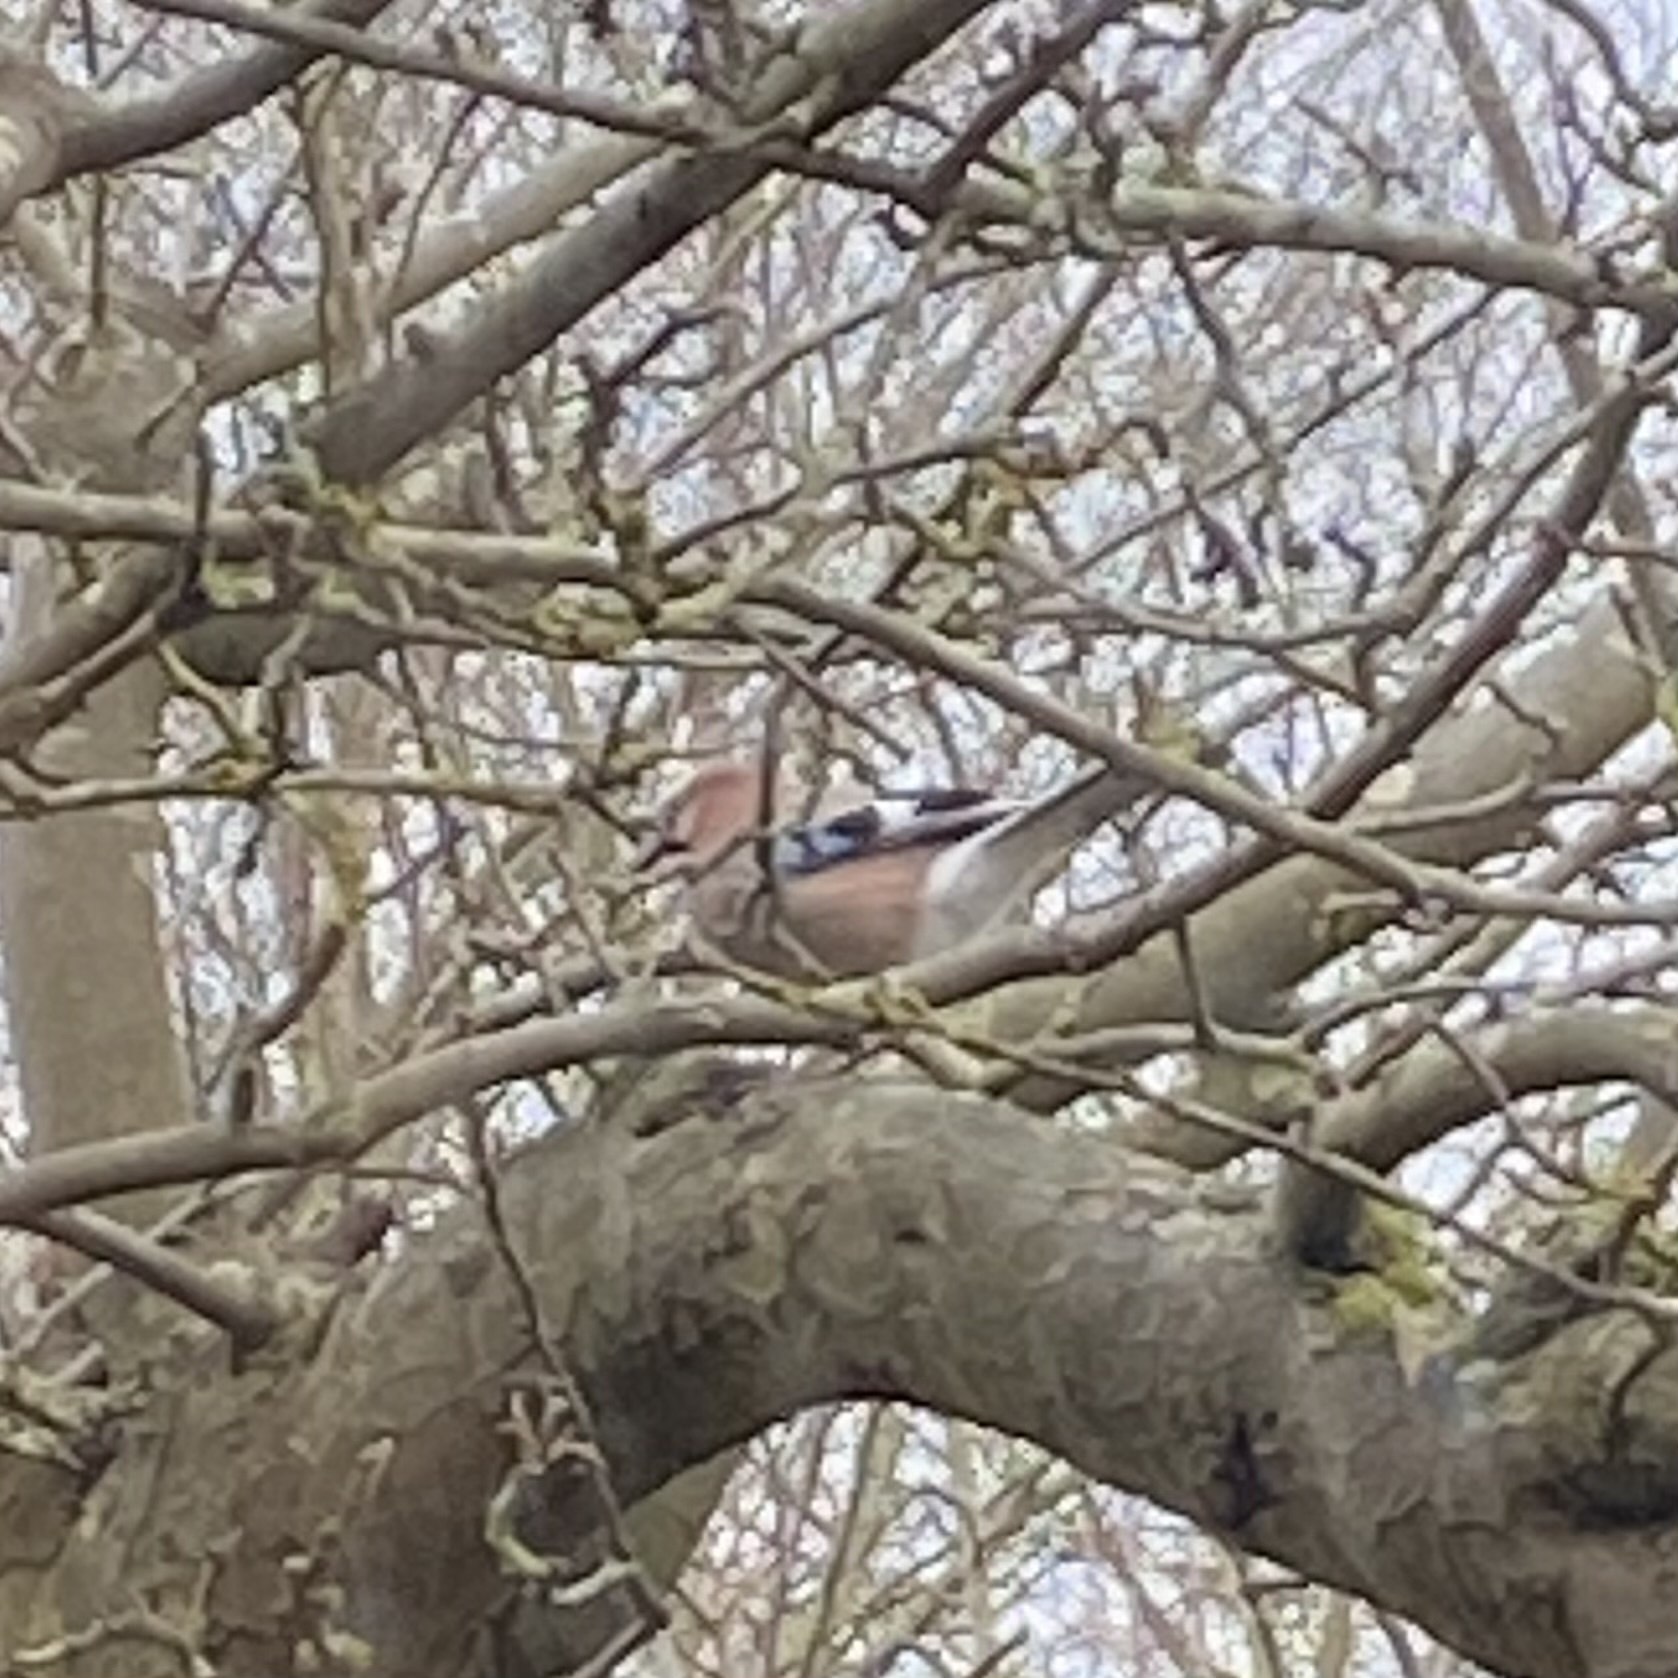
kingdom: Animalia
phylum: Chordata
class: Aves
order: Passeriformes
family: Corvidae
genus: Garrulus
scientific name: Garrulus glandarius
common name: Eurasian jay
